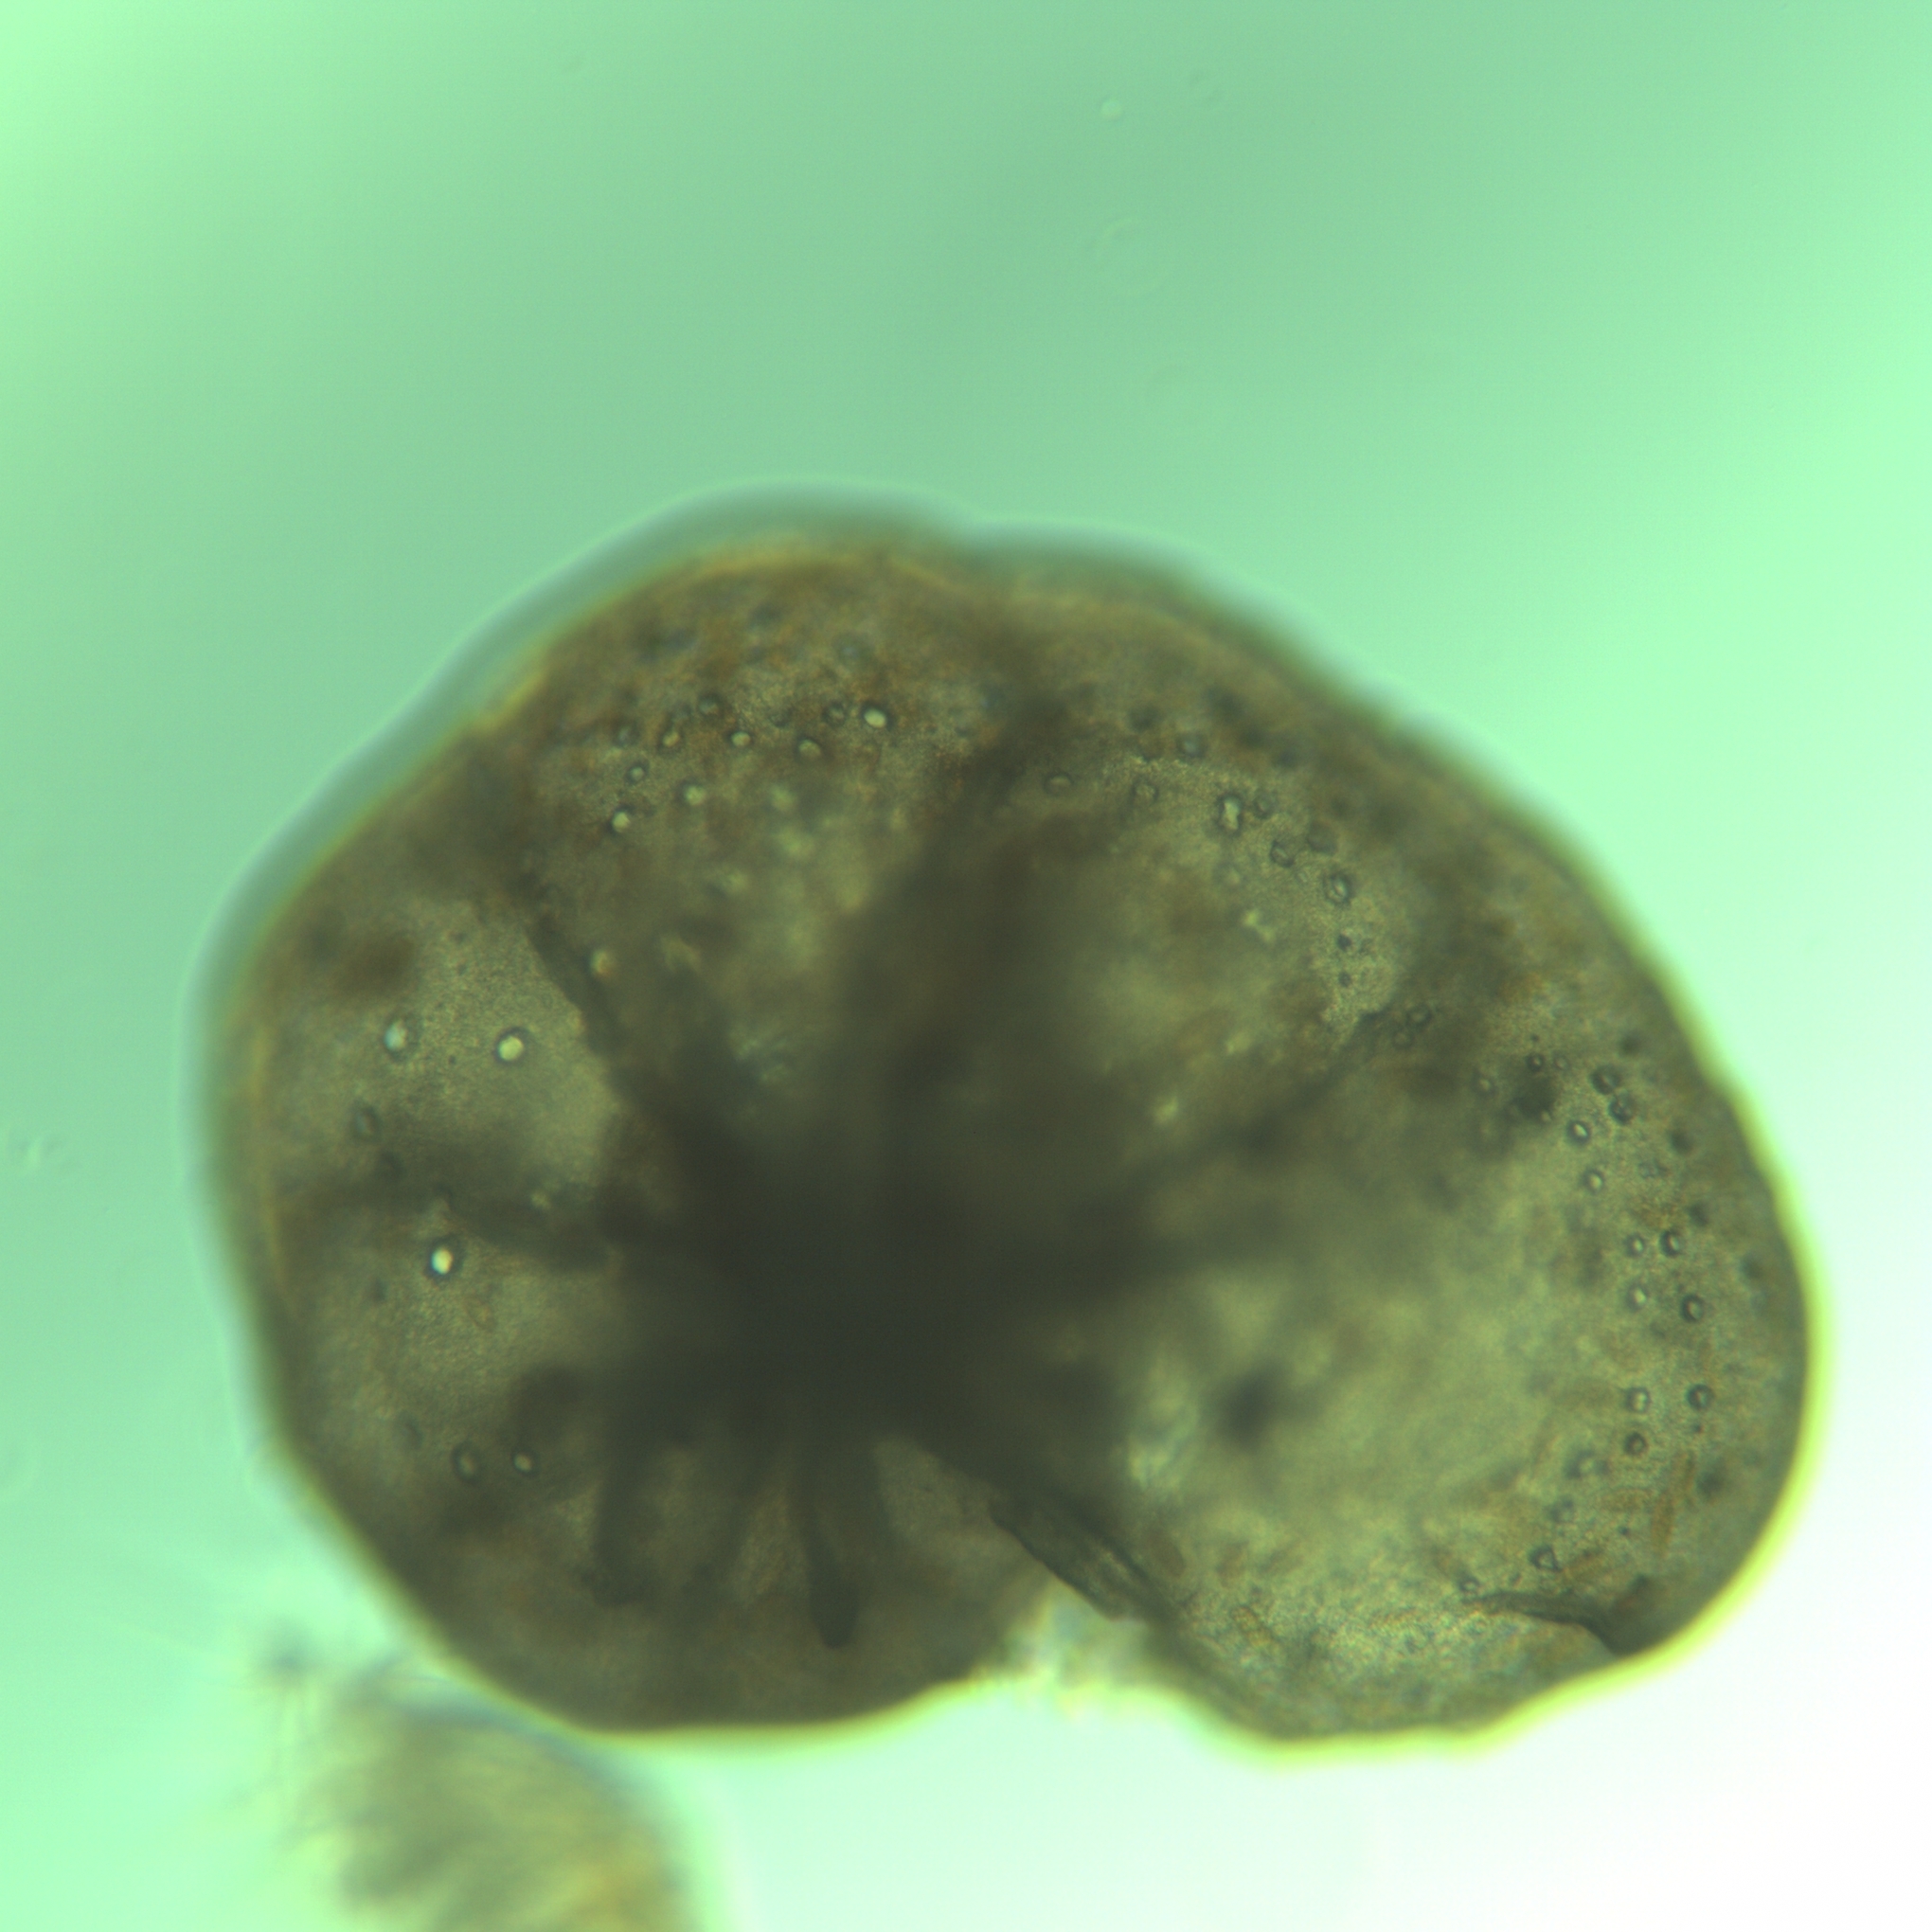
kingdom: Chromista
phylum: Foraminifera
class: Globothalamea
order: Rotaliida
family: Cibicididae
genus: Lobatula
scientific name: Lobatula lobatula
